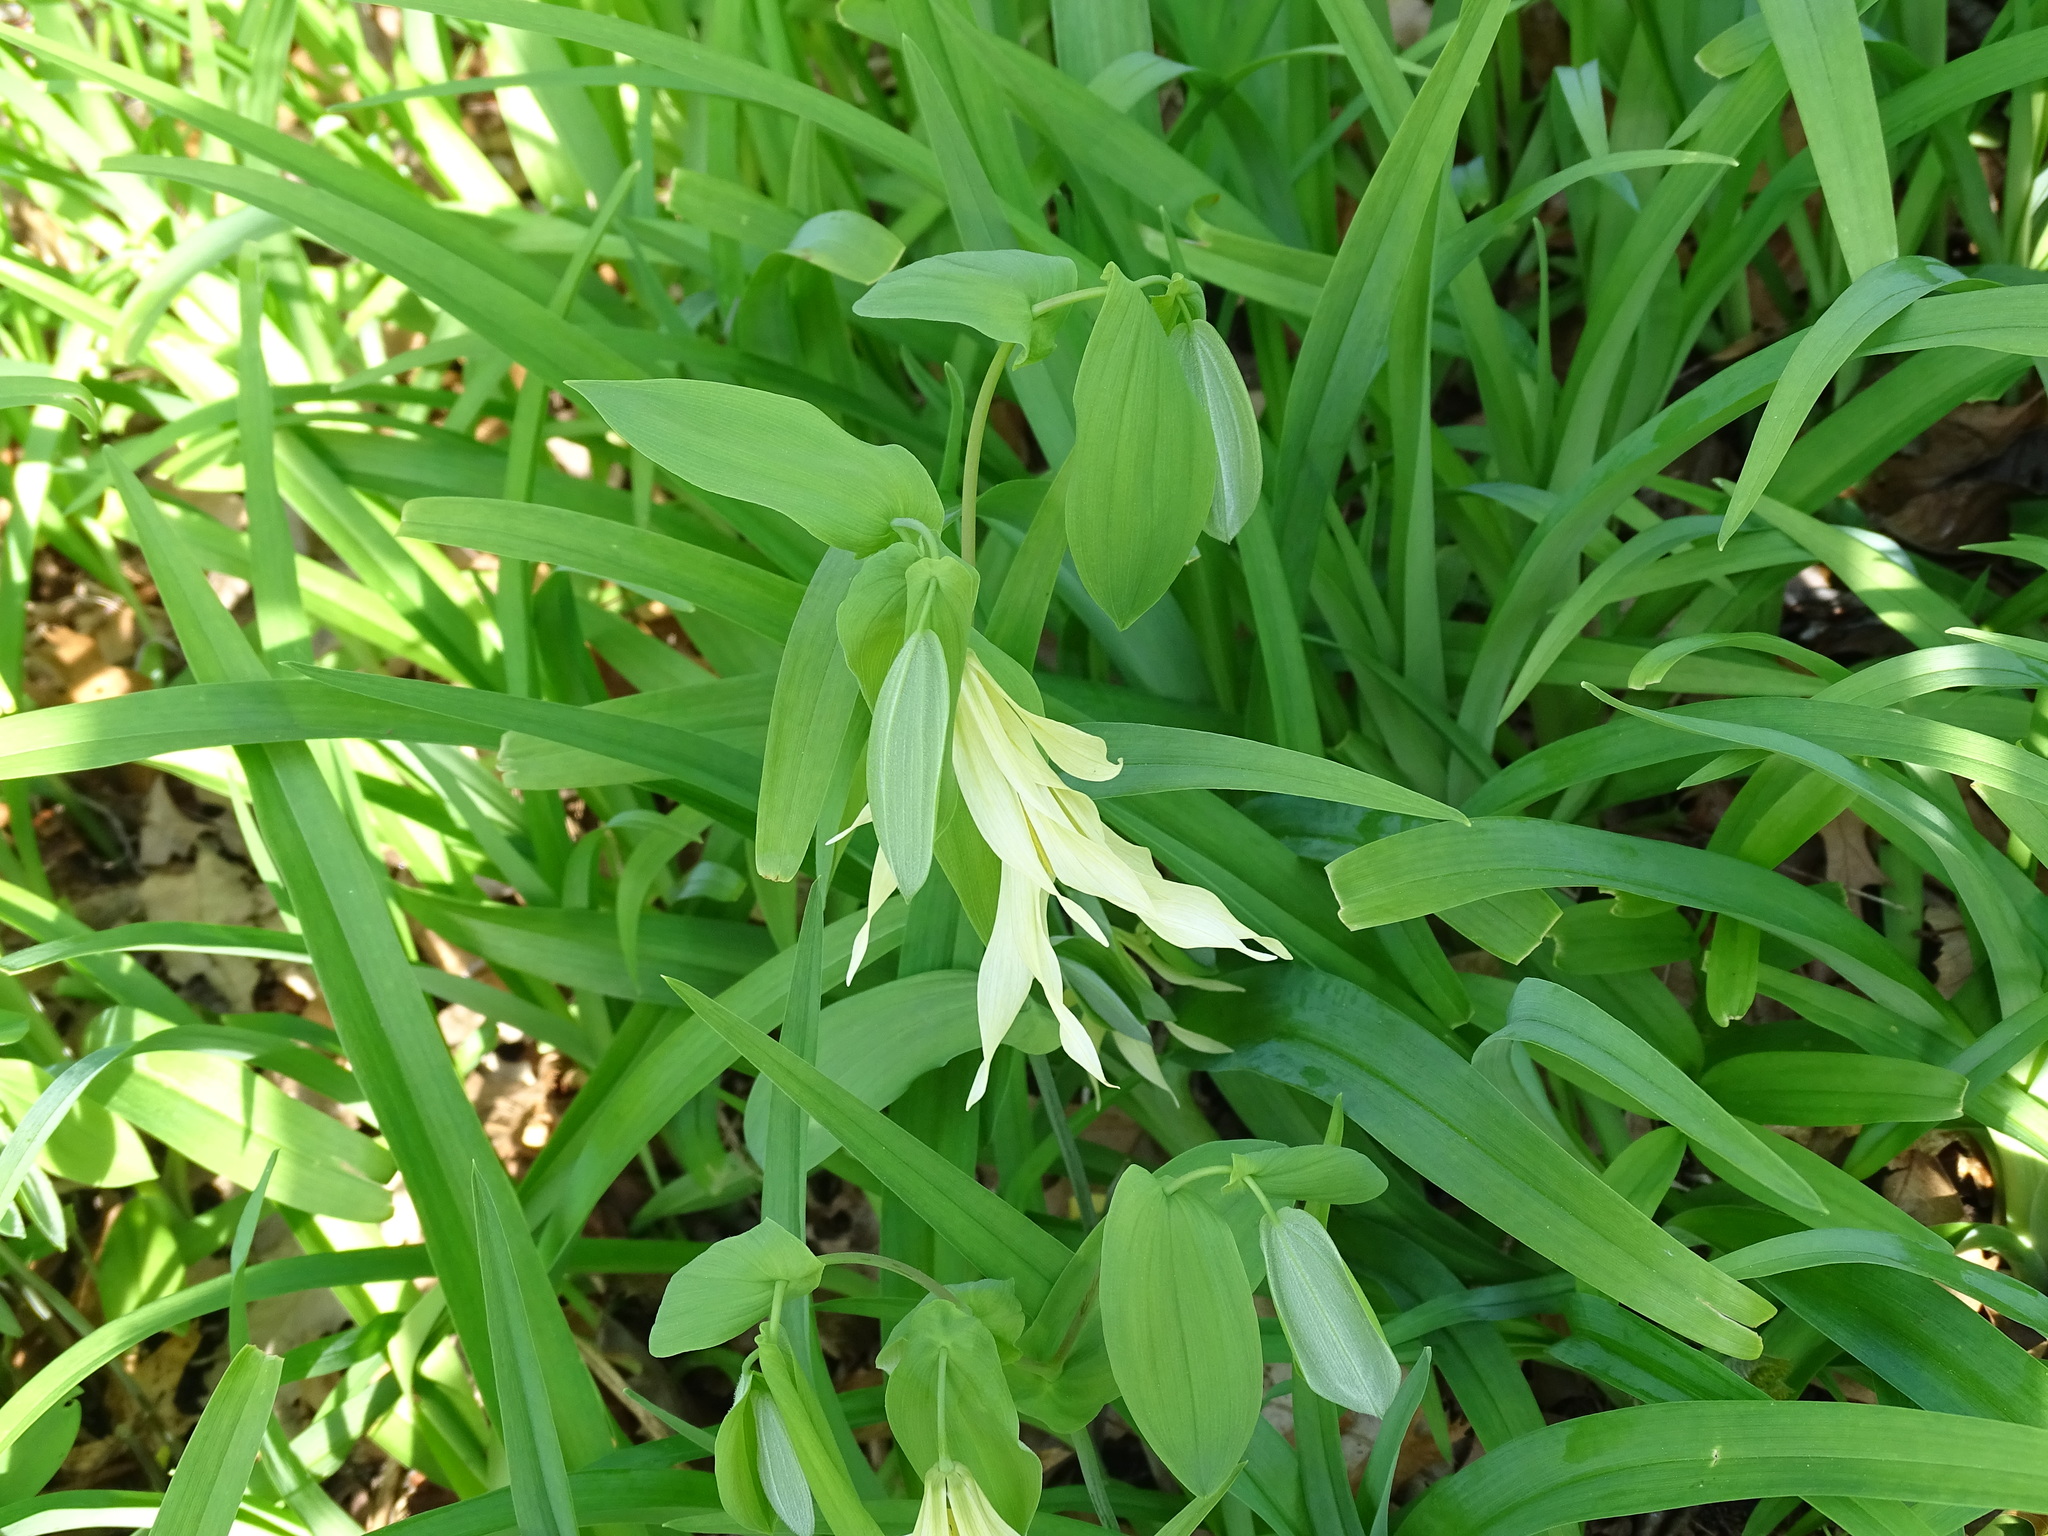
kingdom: Plantae
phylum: Tracheophyta
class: Liliopsida
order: Liliales
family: Colchicaceae
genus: Uvularia
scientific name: Uvularia grandiflora
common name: Bellwort
